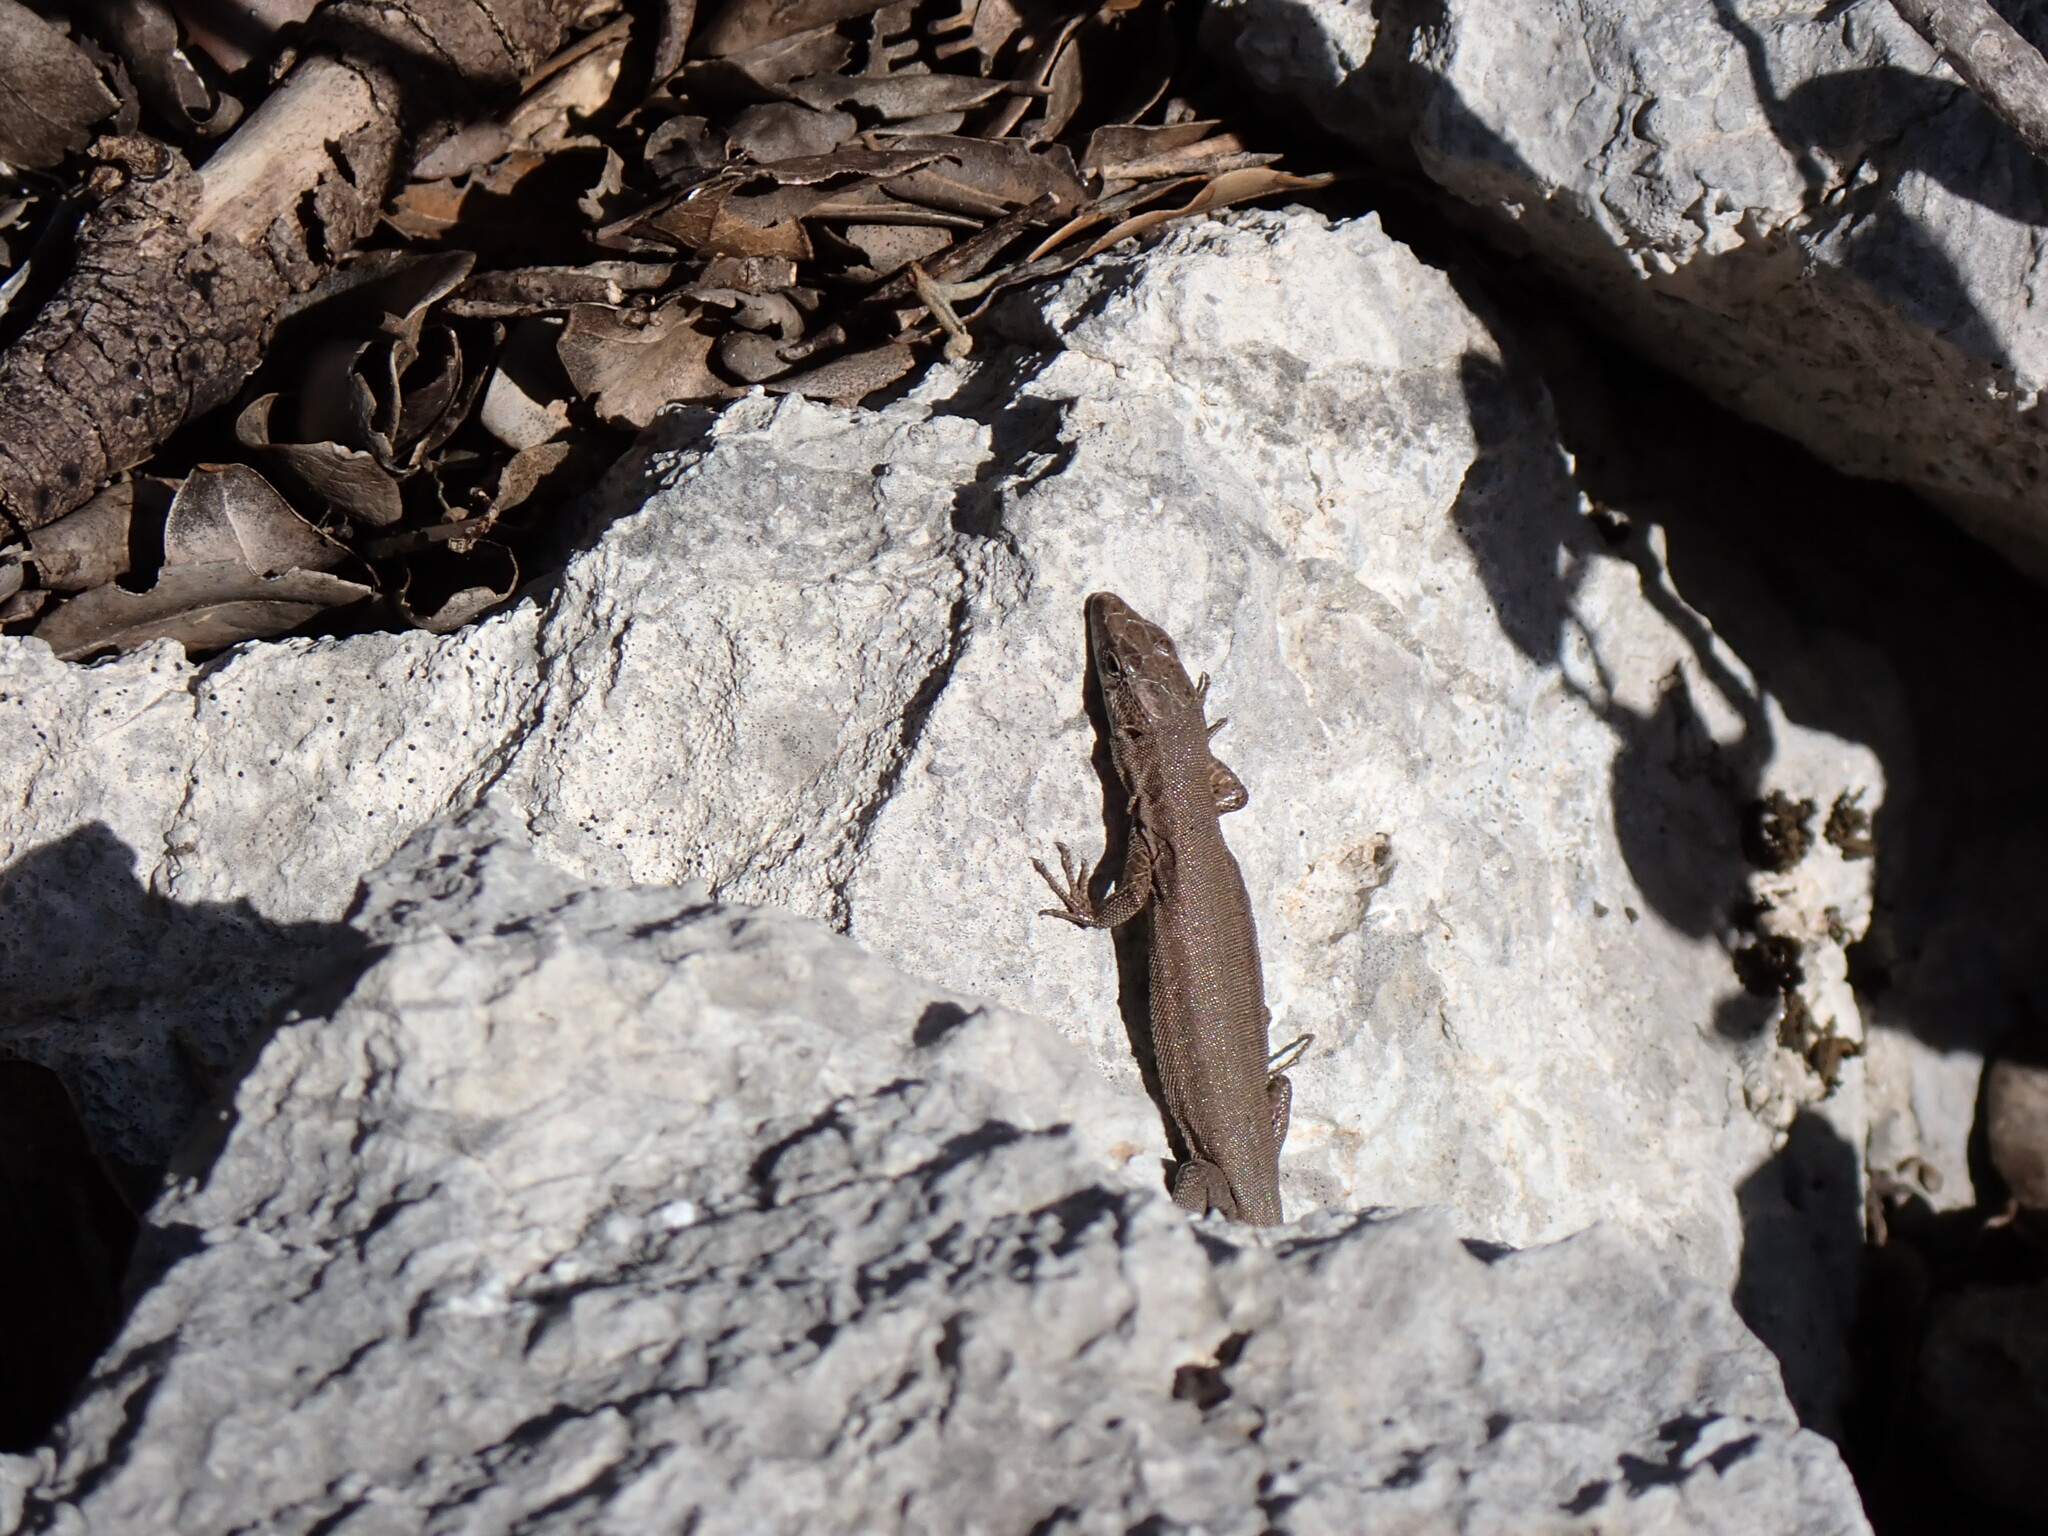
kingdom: Animalia
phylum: Chordata
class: Squamata
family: Lacertidae
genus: Podarcis
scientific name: Podarcis liolepis
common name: Catalonian wall lizard
